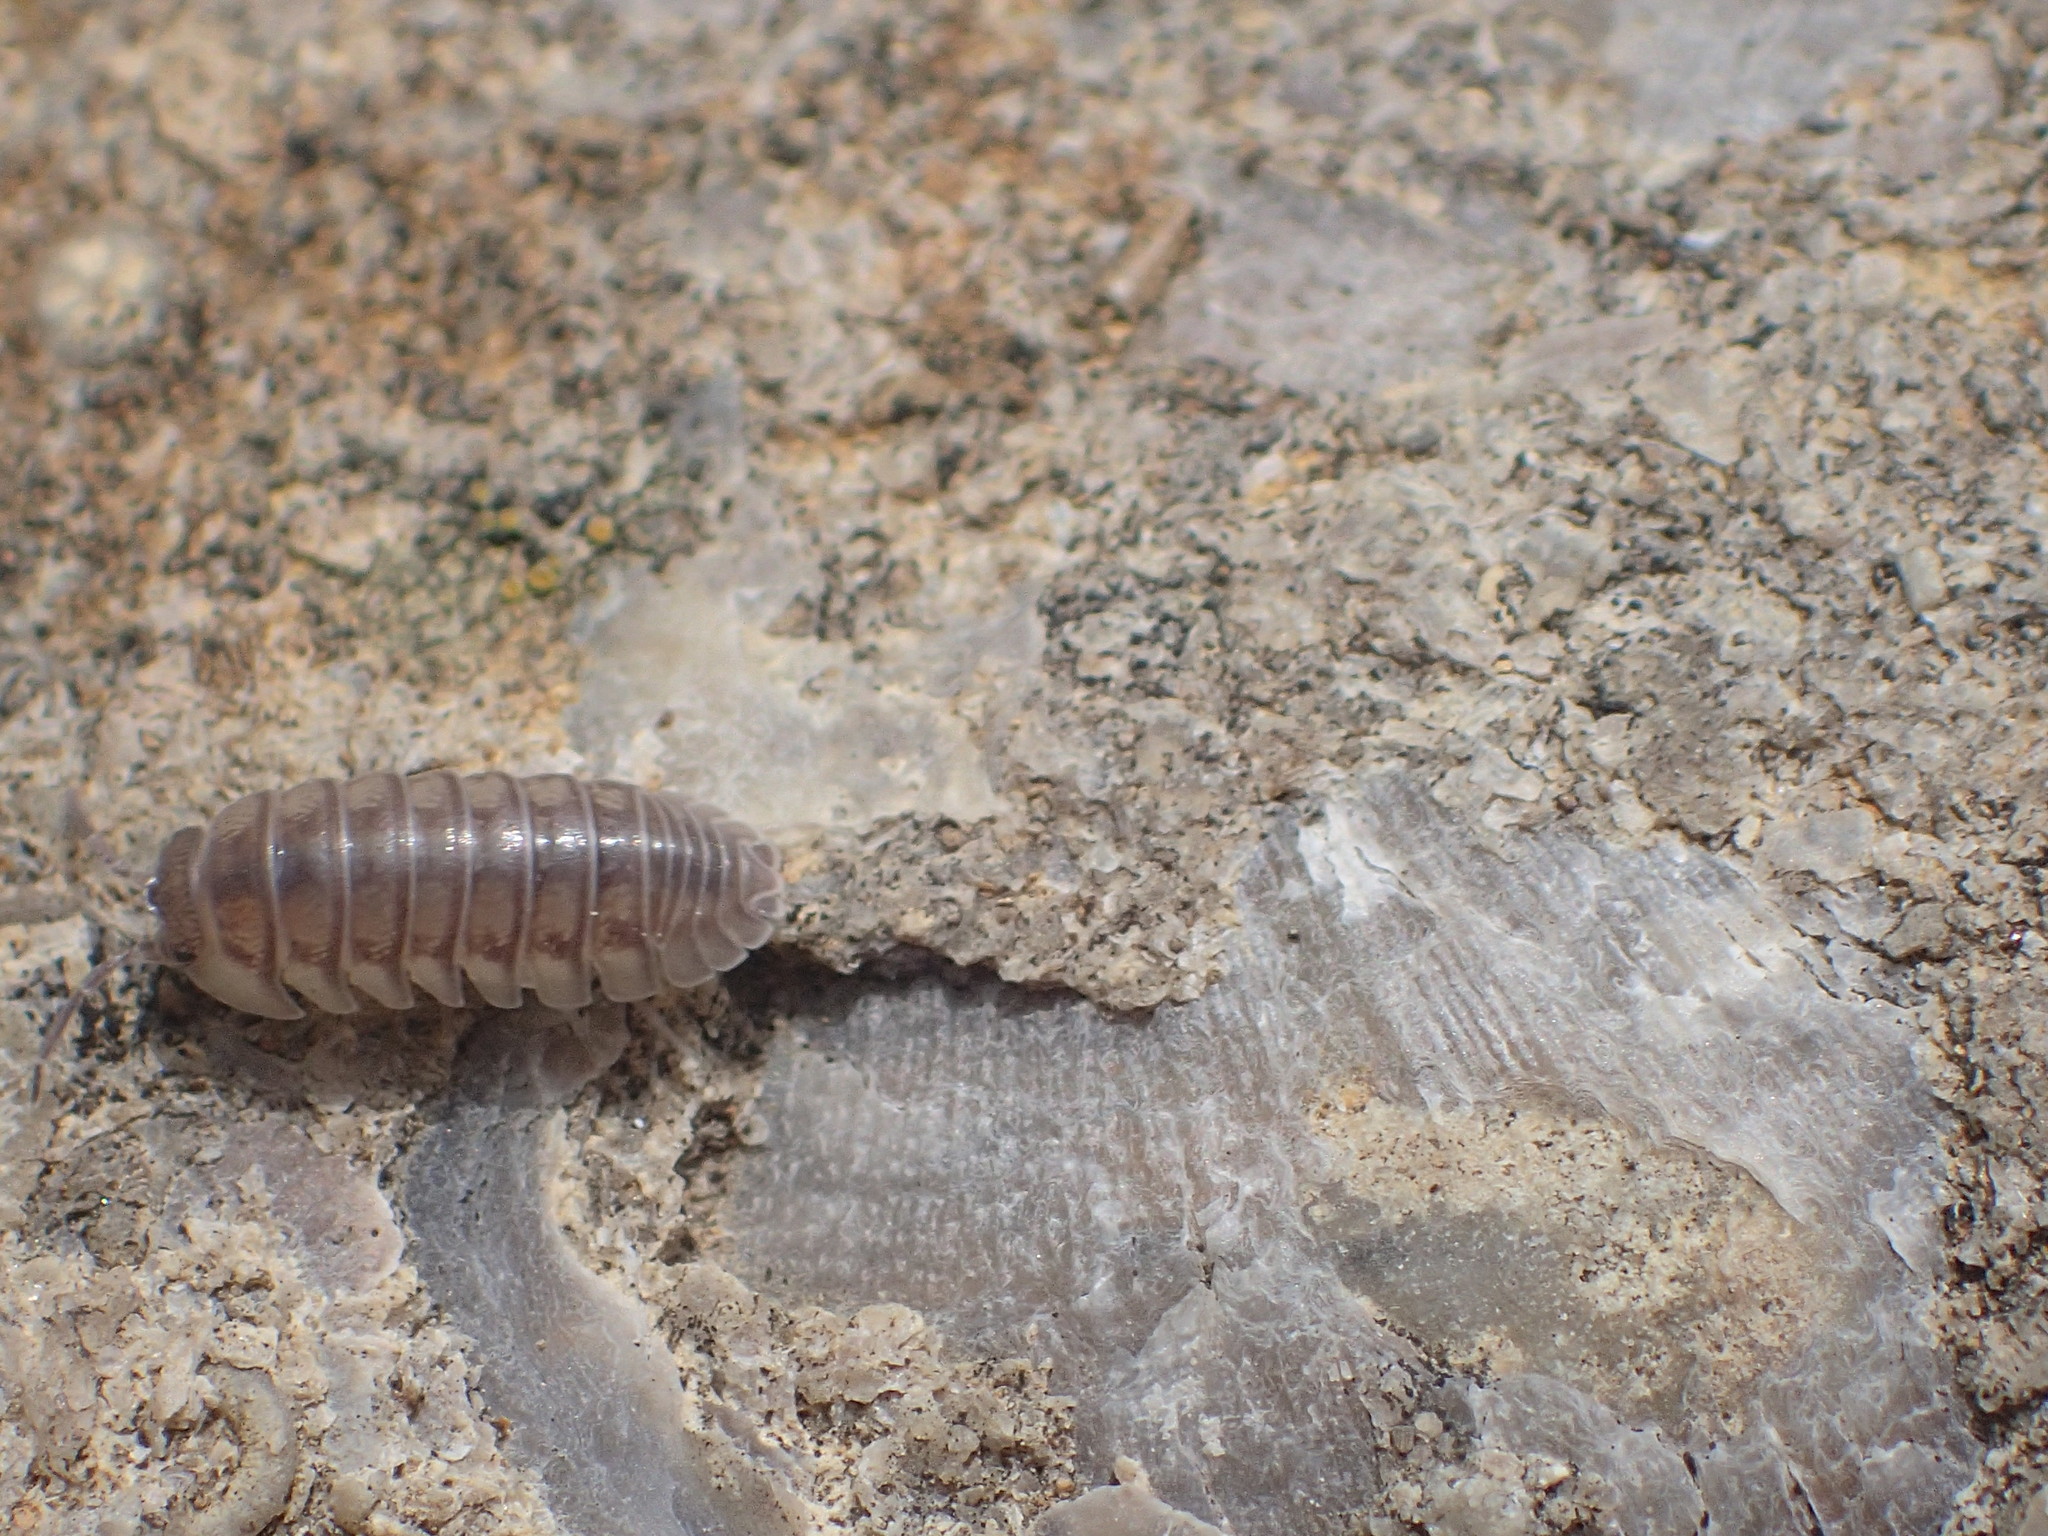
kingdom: Animalia
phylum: Arthropoda
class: Malacostraca
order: Isopoda
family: Armadillidiidae
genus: Armadillidium
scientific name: Armadillidium nasatum
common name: Isopod
